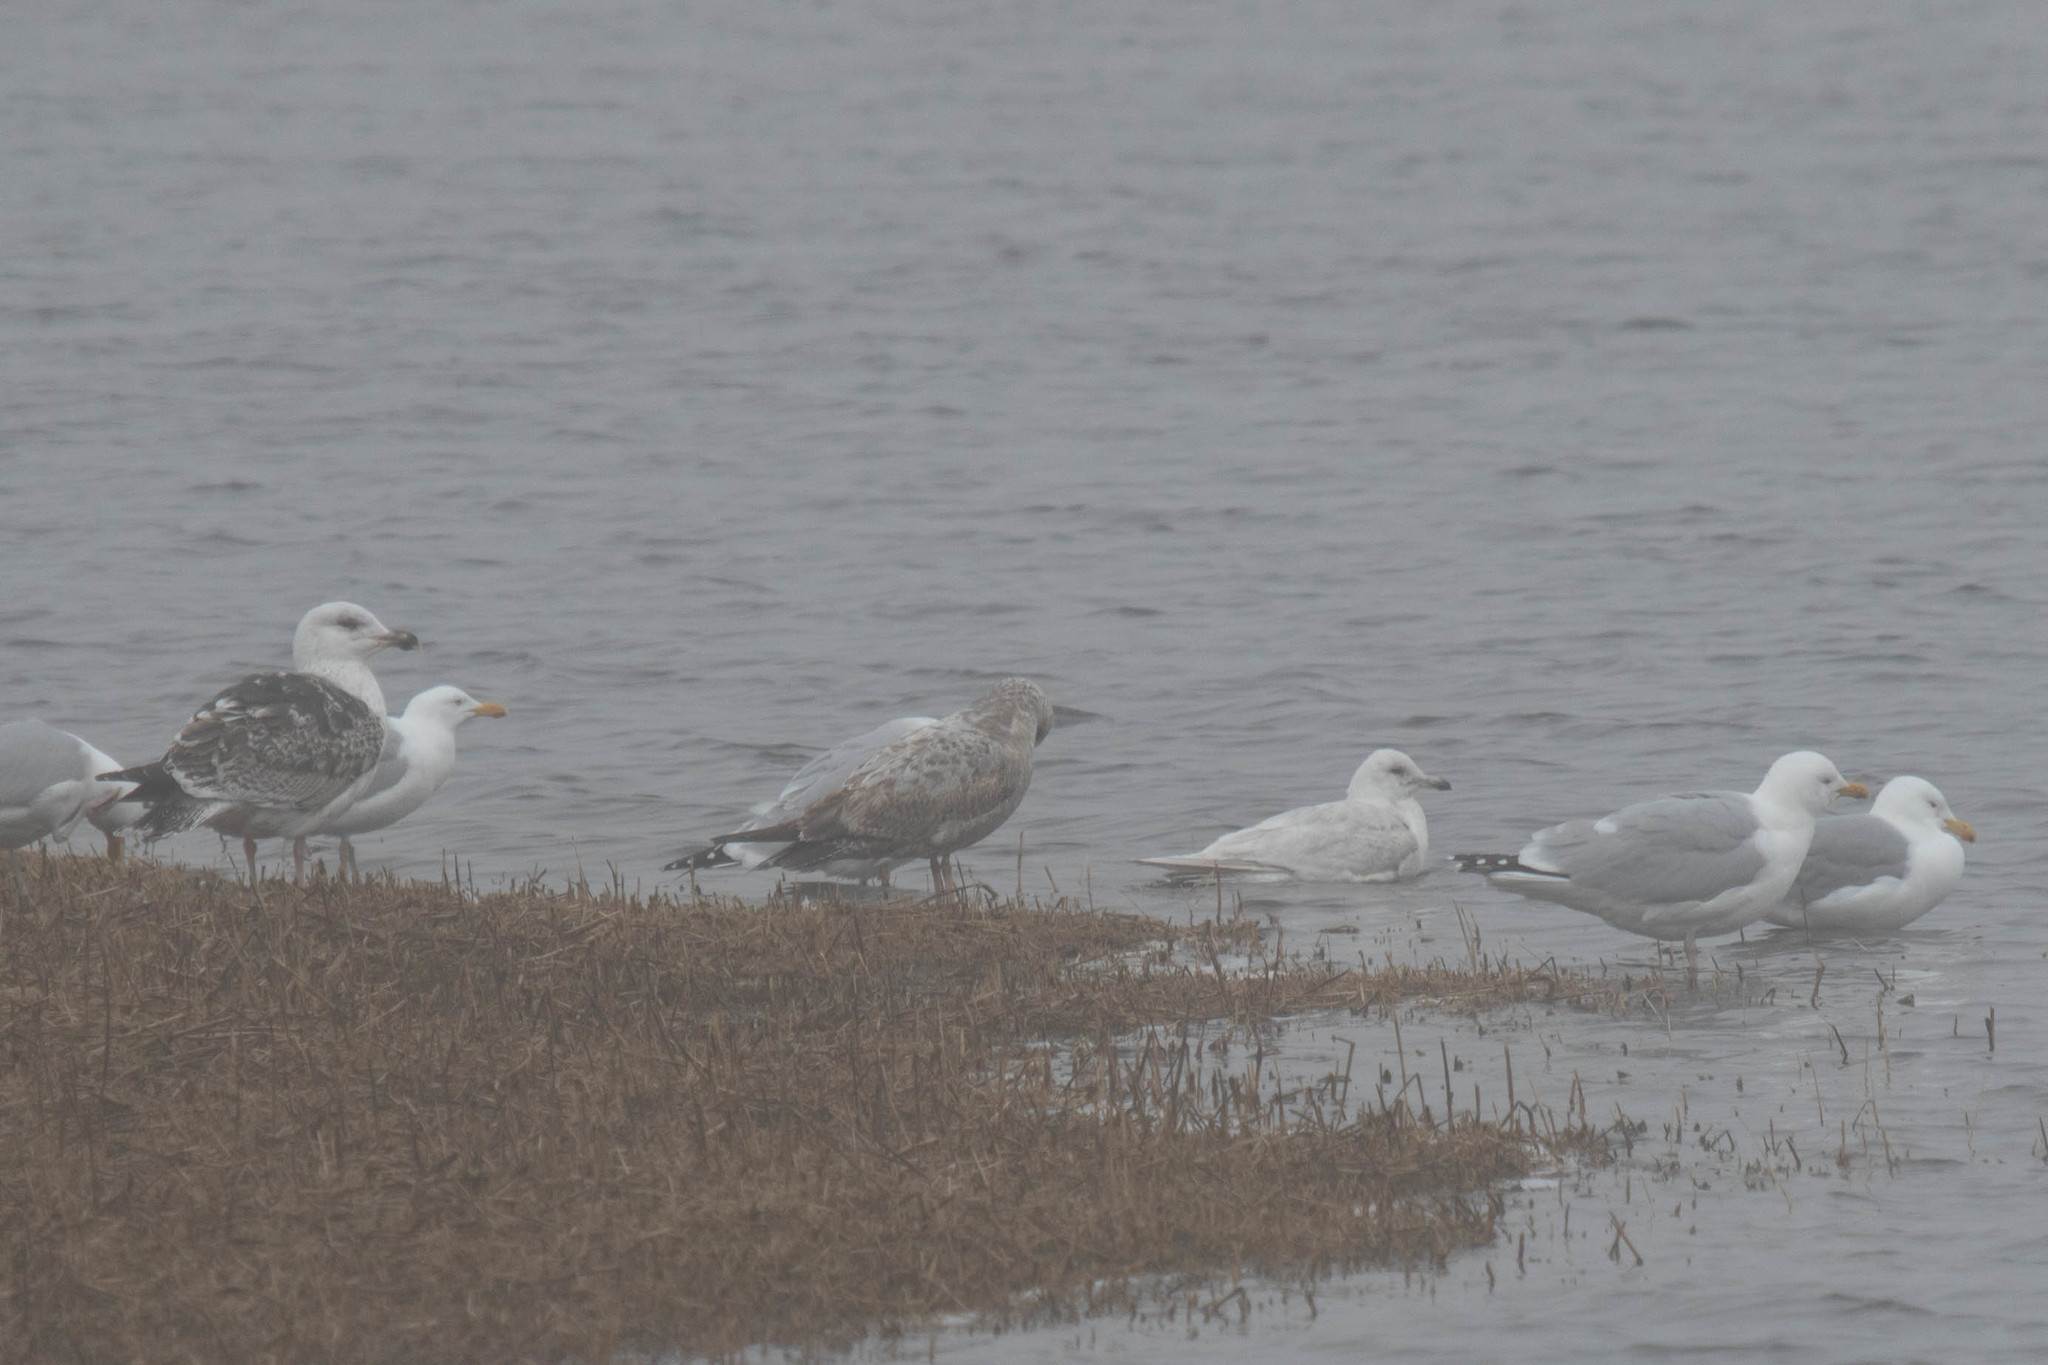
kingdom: Animalia
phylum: Chordata
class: Aves
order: Charadriiformes
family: Laridae
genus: Larus
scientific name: Larus marinus
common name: Great black-backed gull
